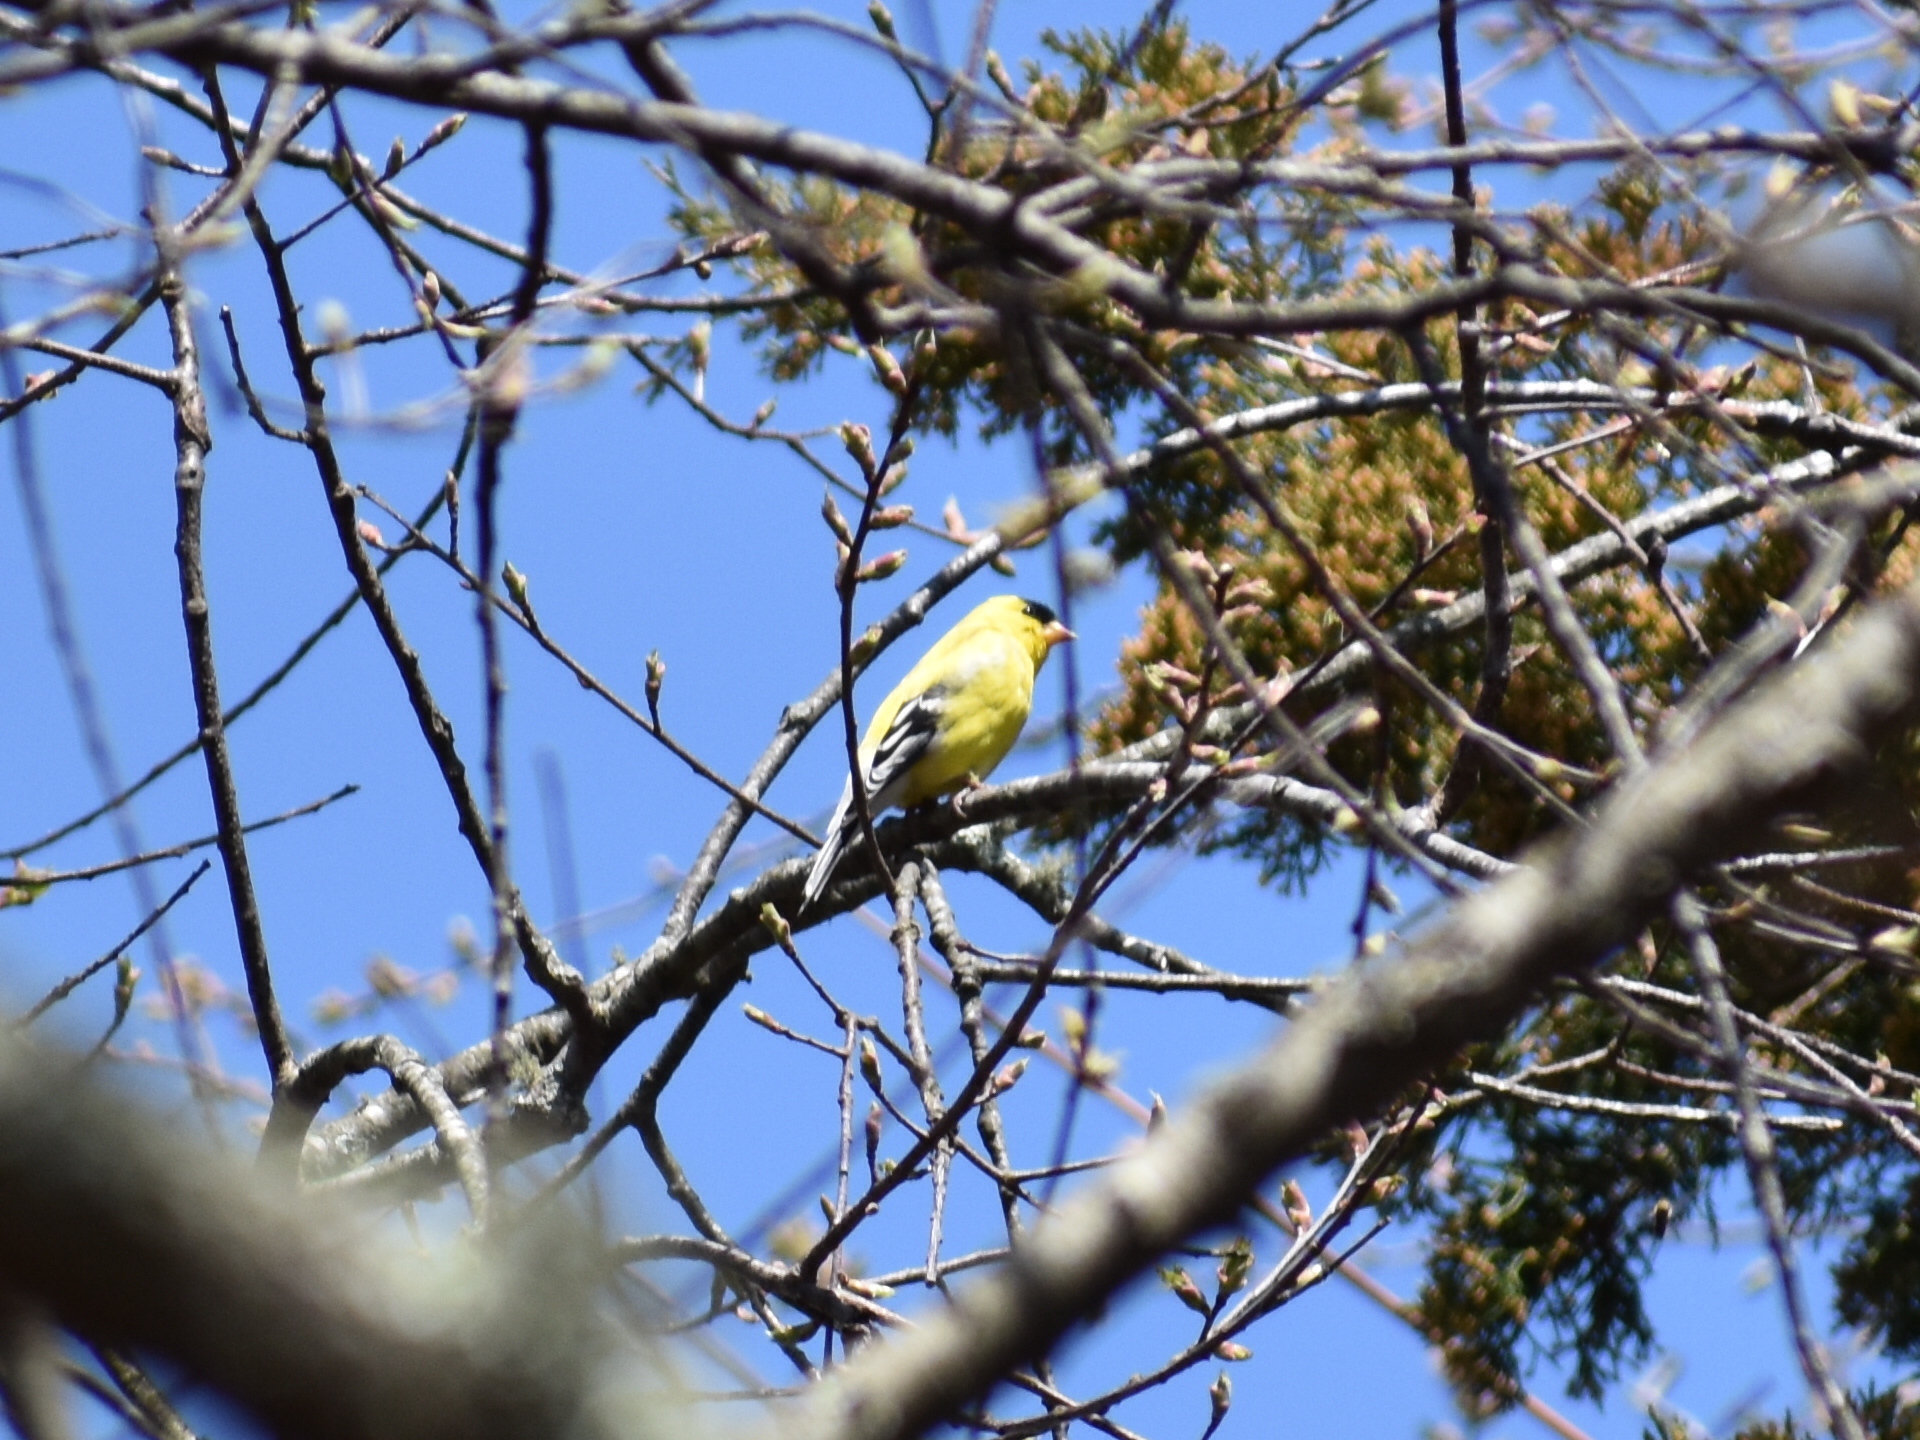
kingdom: Animalia
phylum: Chordata
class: Aves
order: Passeriformes
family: Fringillidae
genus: Spinus
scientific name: Spinus tristis
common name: American goldfinch
